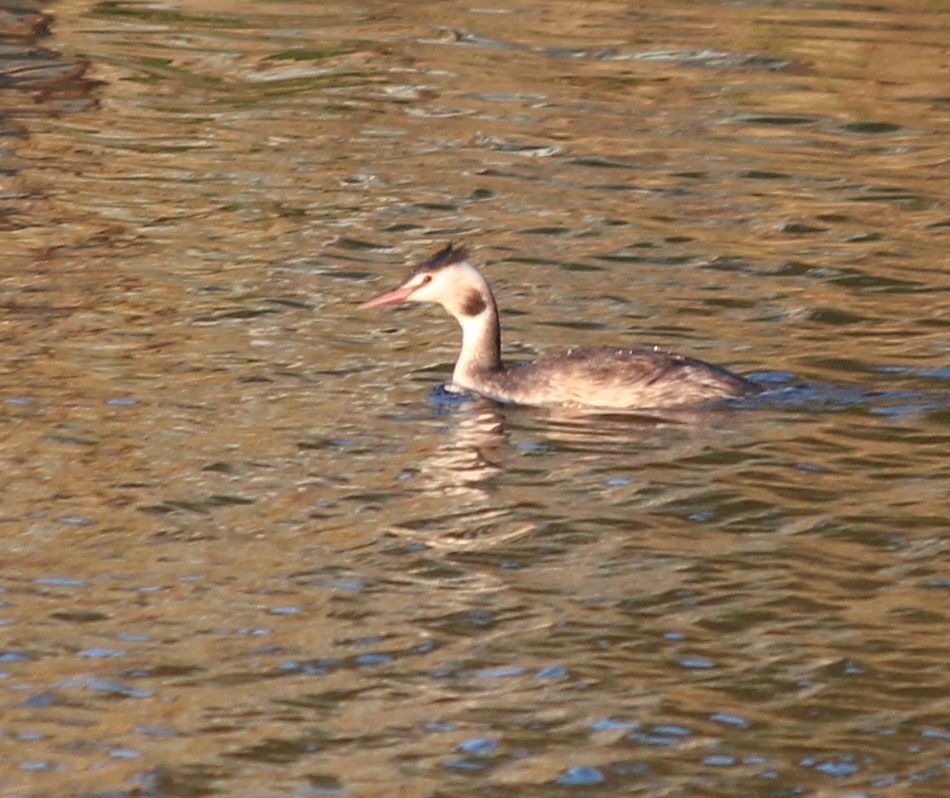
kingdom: Animalia
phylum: Chordata
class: Aves
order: Podicipediformes
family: Podicipedidae
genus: Podiceps
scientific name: Podiceps cristatus
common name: Great crested grebe
